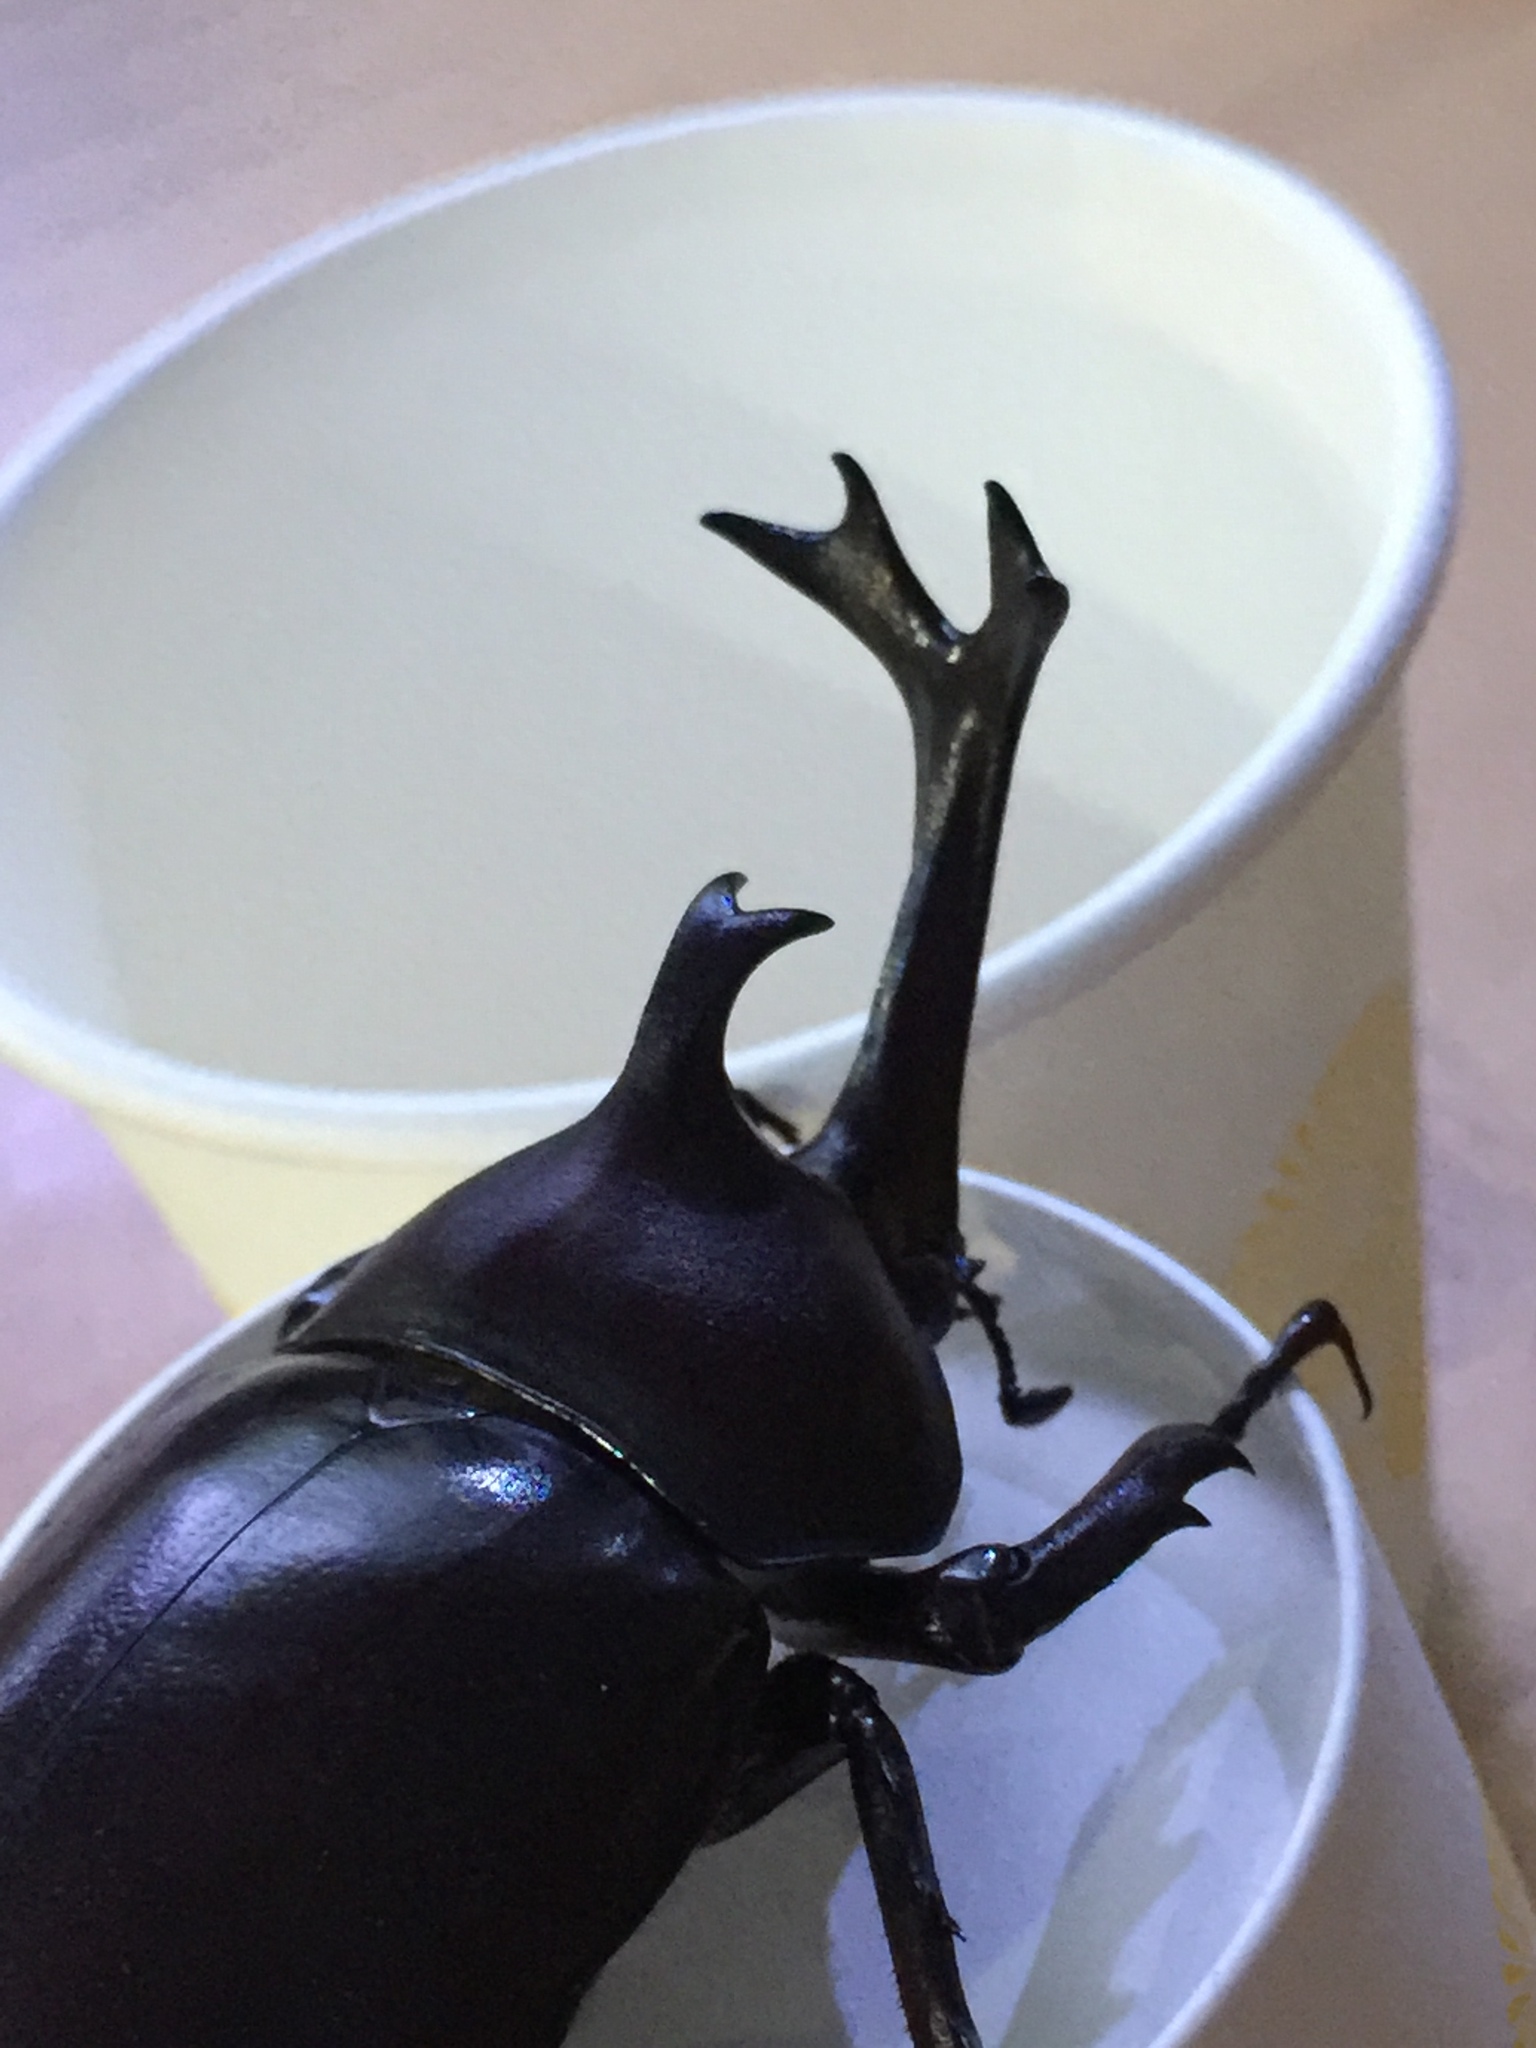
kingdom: Animalia
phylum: Arthropoda
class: Insecta
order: Coleoptera
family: Scarabaeidae
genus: Trypoxylus
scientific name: Trypoxylus dichotomus
